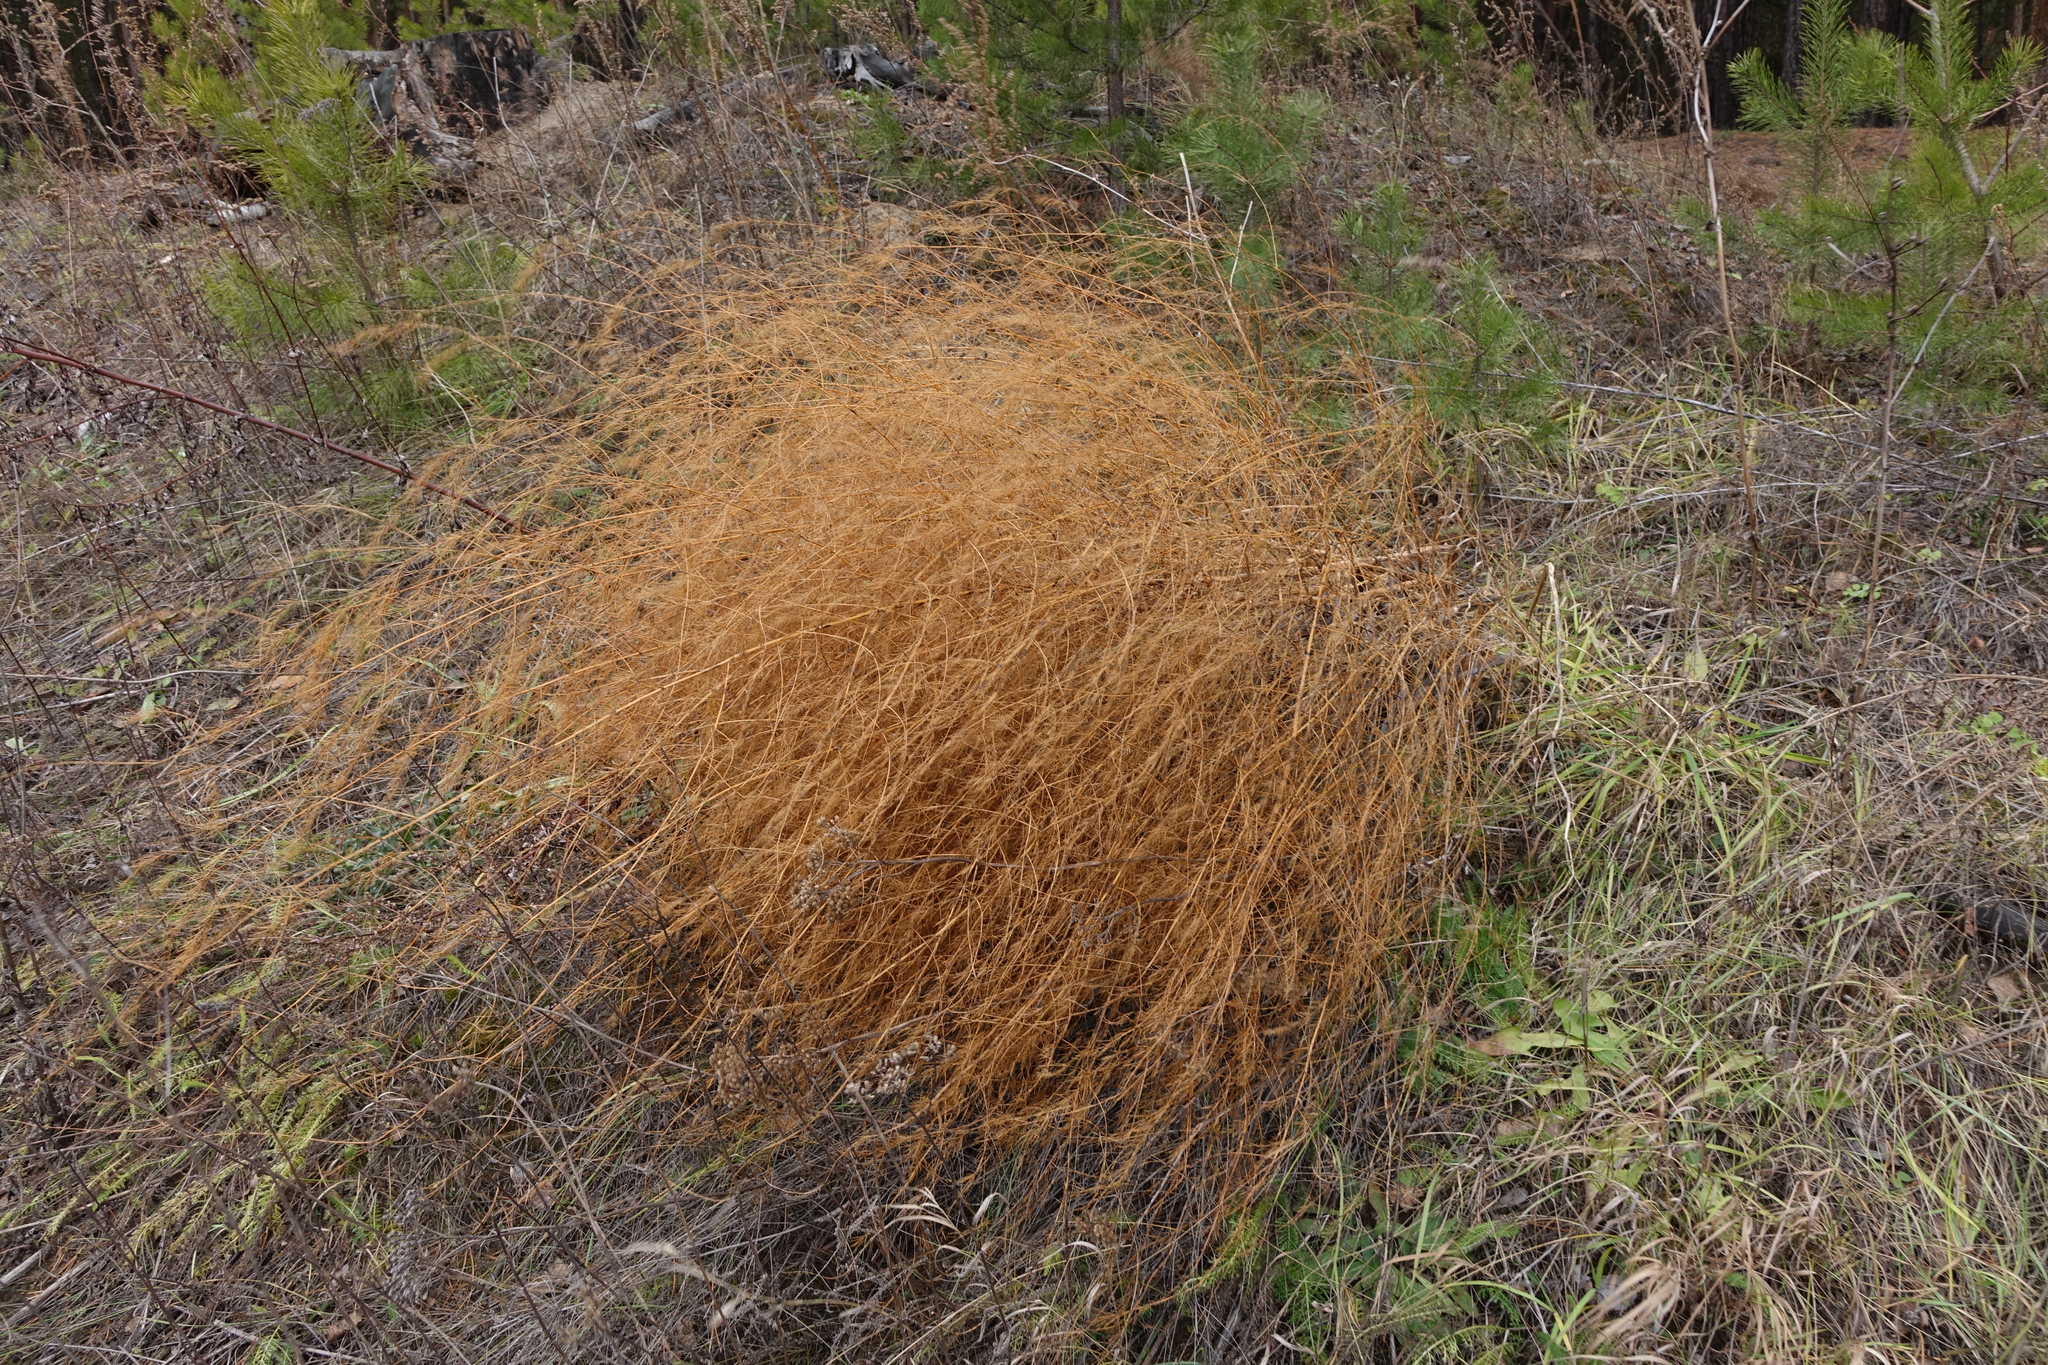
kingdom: Plantae
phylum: Tracheophyta
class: Liliopsida
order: Asparagales
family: Asparagaceae
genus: Asparagus
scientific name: Asparagus officinalis
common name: Garden asparagus
